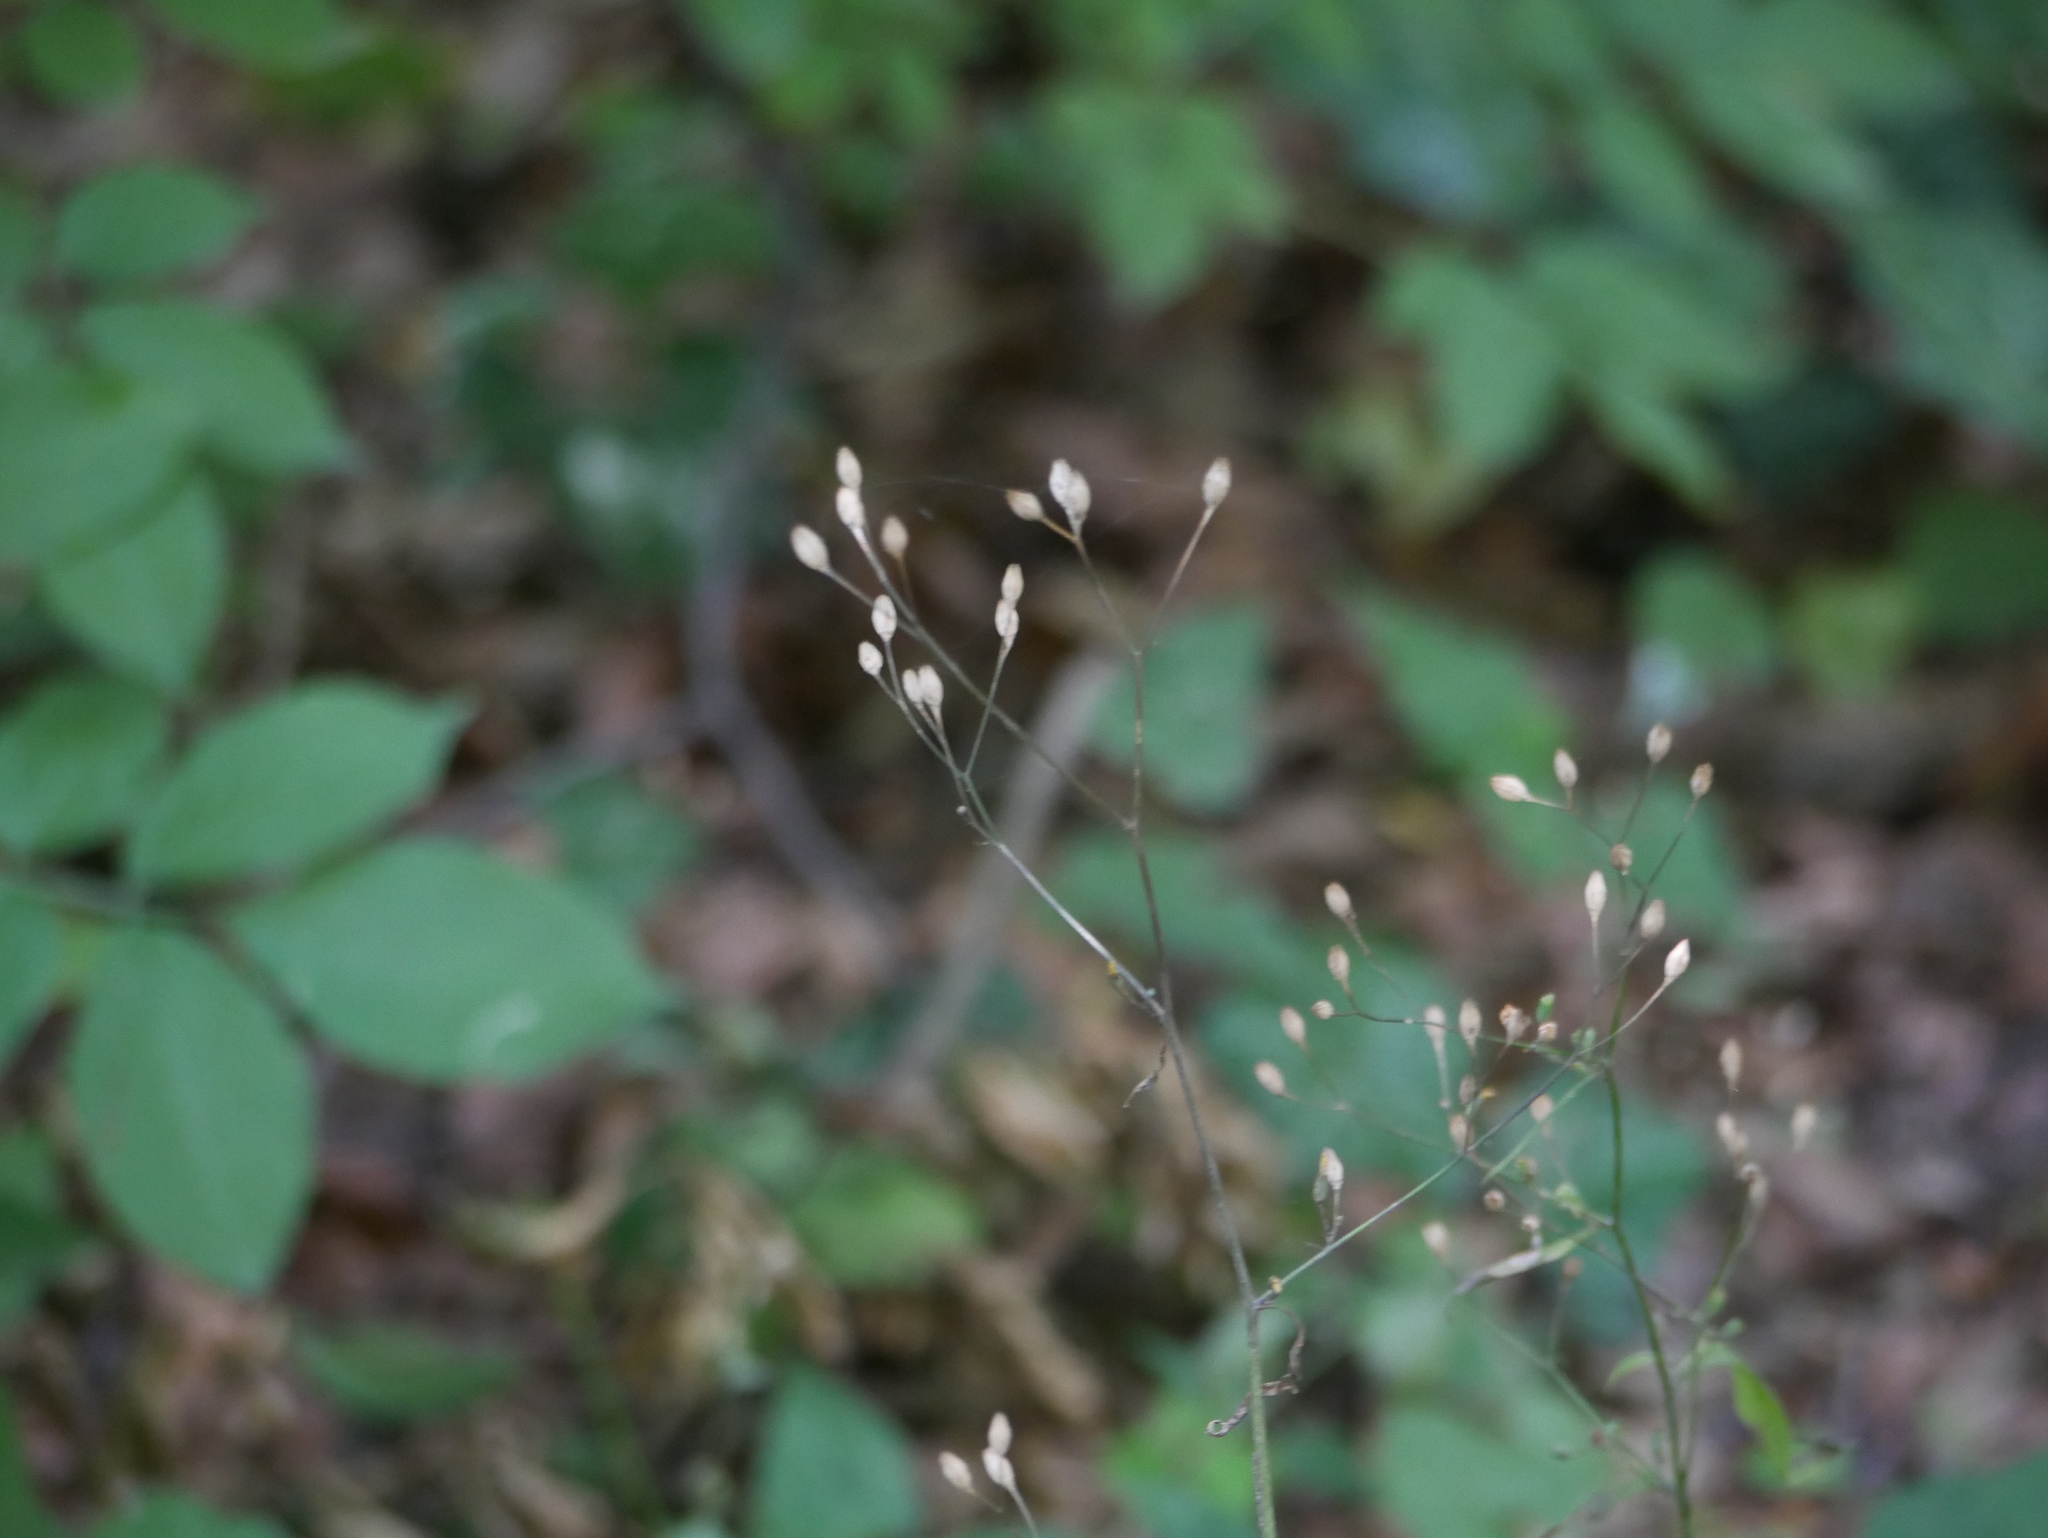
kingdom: Plantae
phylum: Tracheophyta
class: Magnoliopsida
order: Asterales
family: Asteraceae
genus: Lapsana
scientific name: Lapsana communis
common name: Nipplewort
